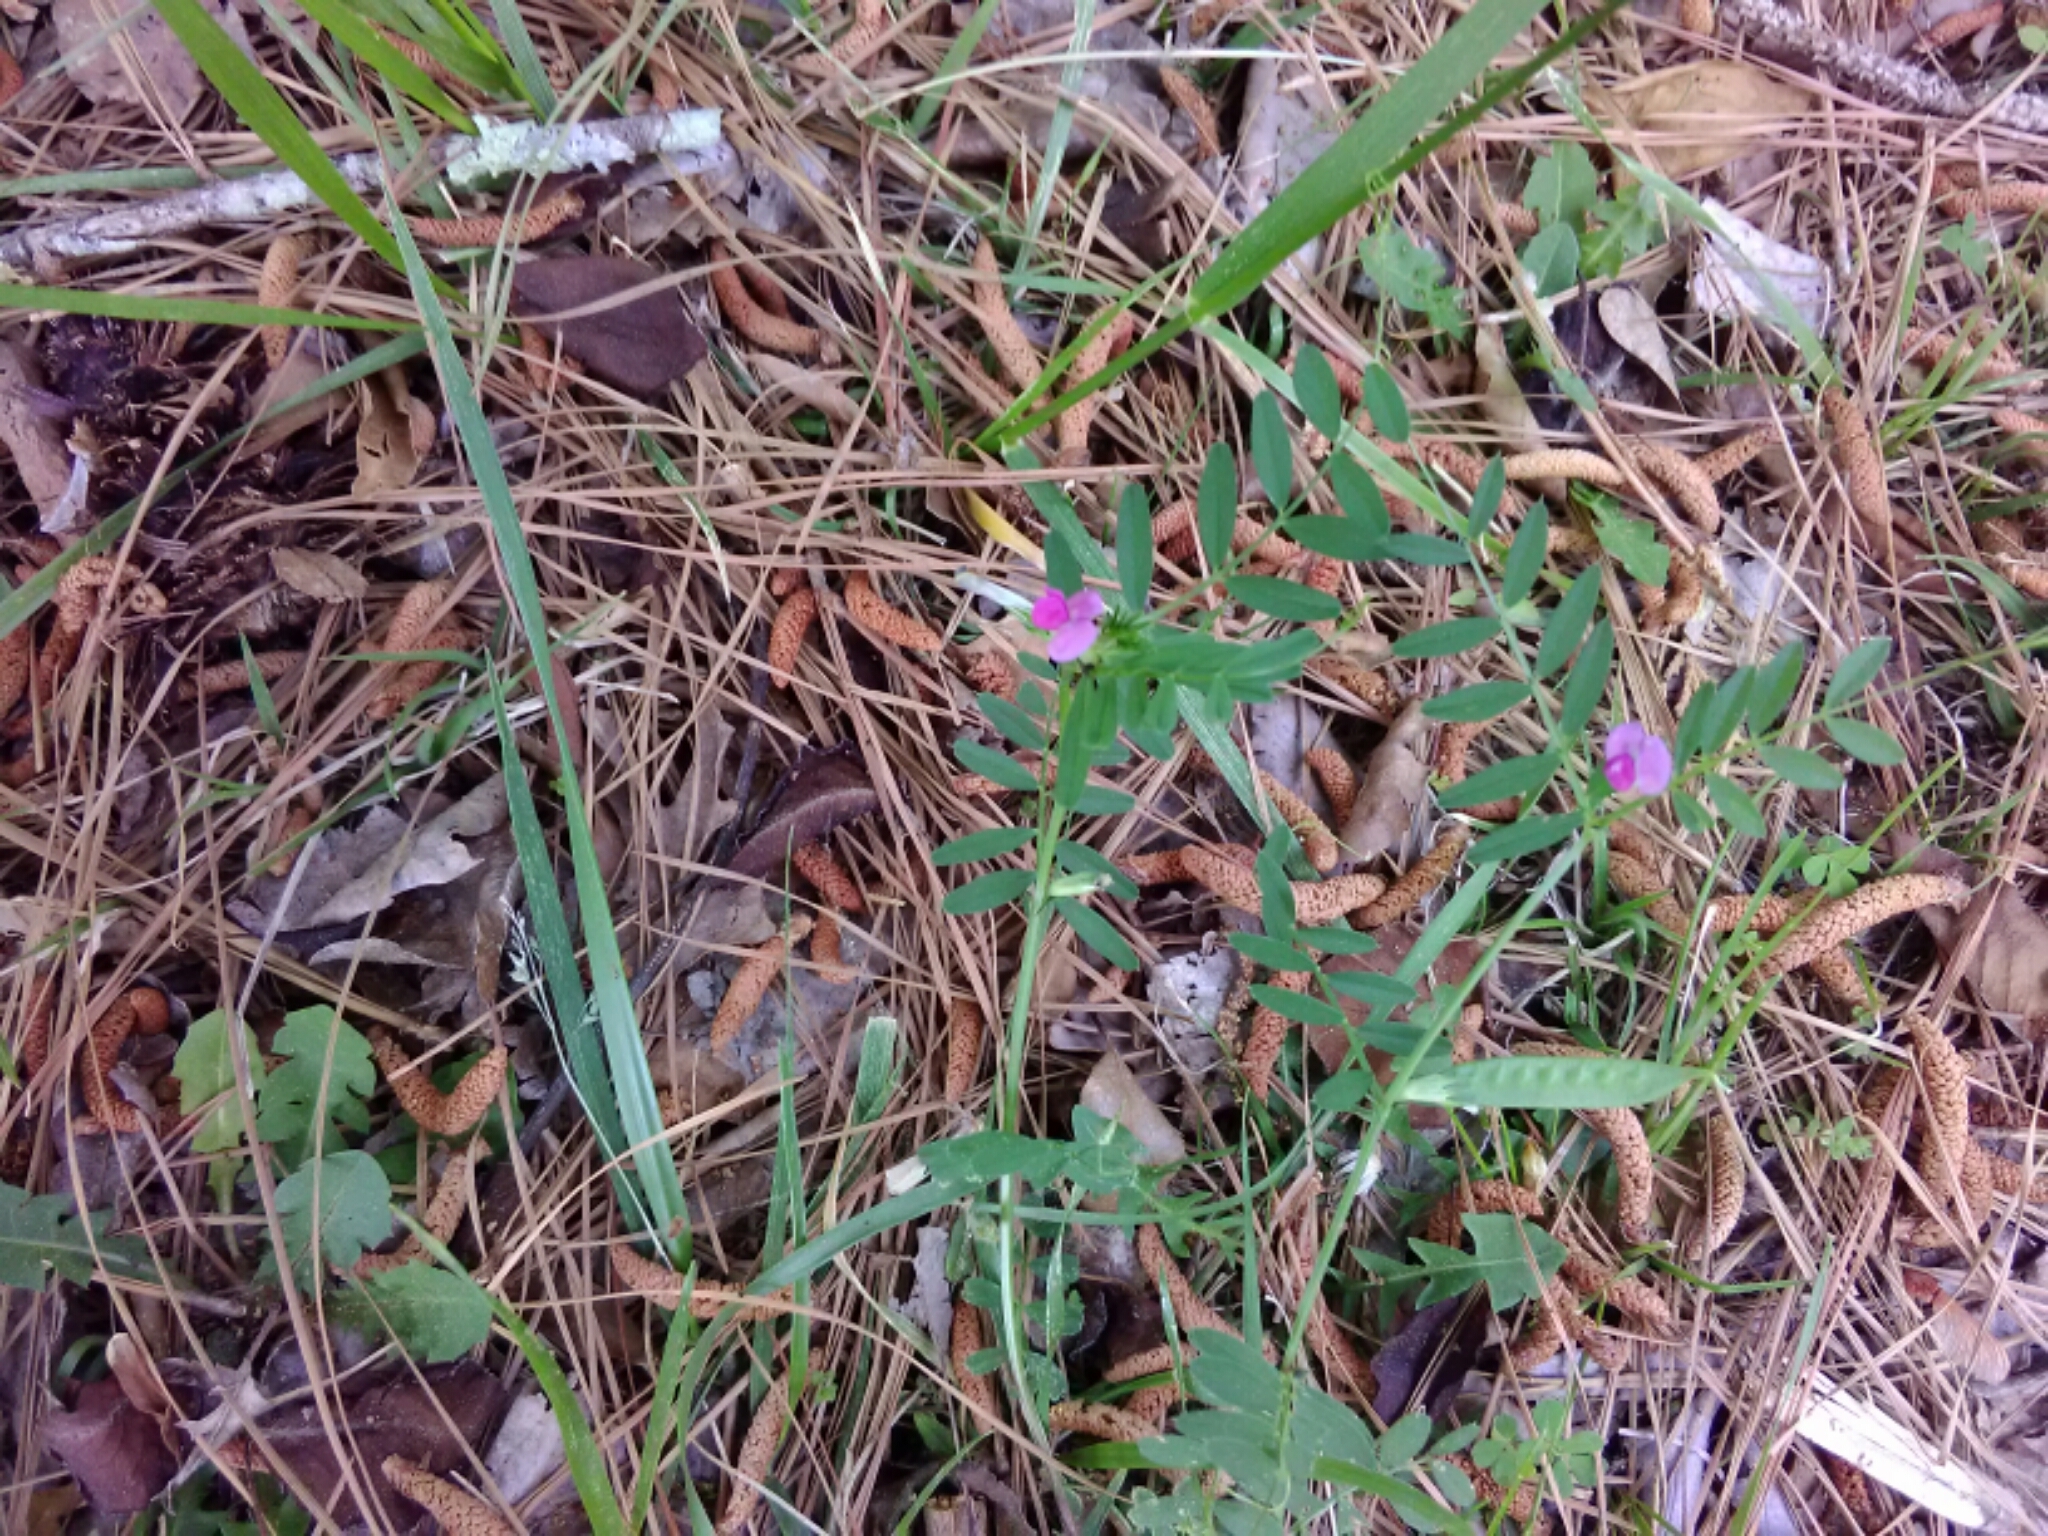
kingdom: Plantae
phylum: Tracheophyta
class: Magnoliopsida
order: Fabales
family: Fabaceae
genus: Vicia
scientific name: Vicia sativa
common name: Garden vetch
